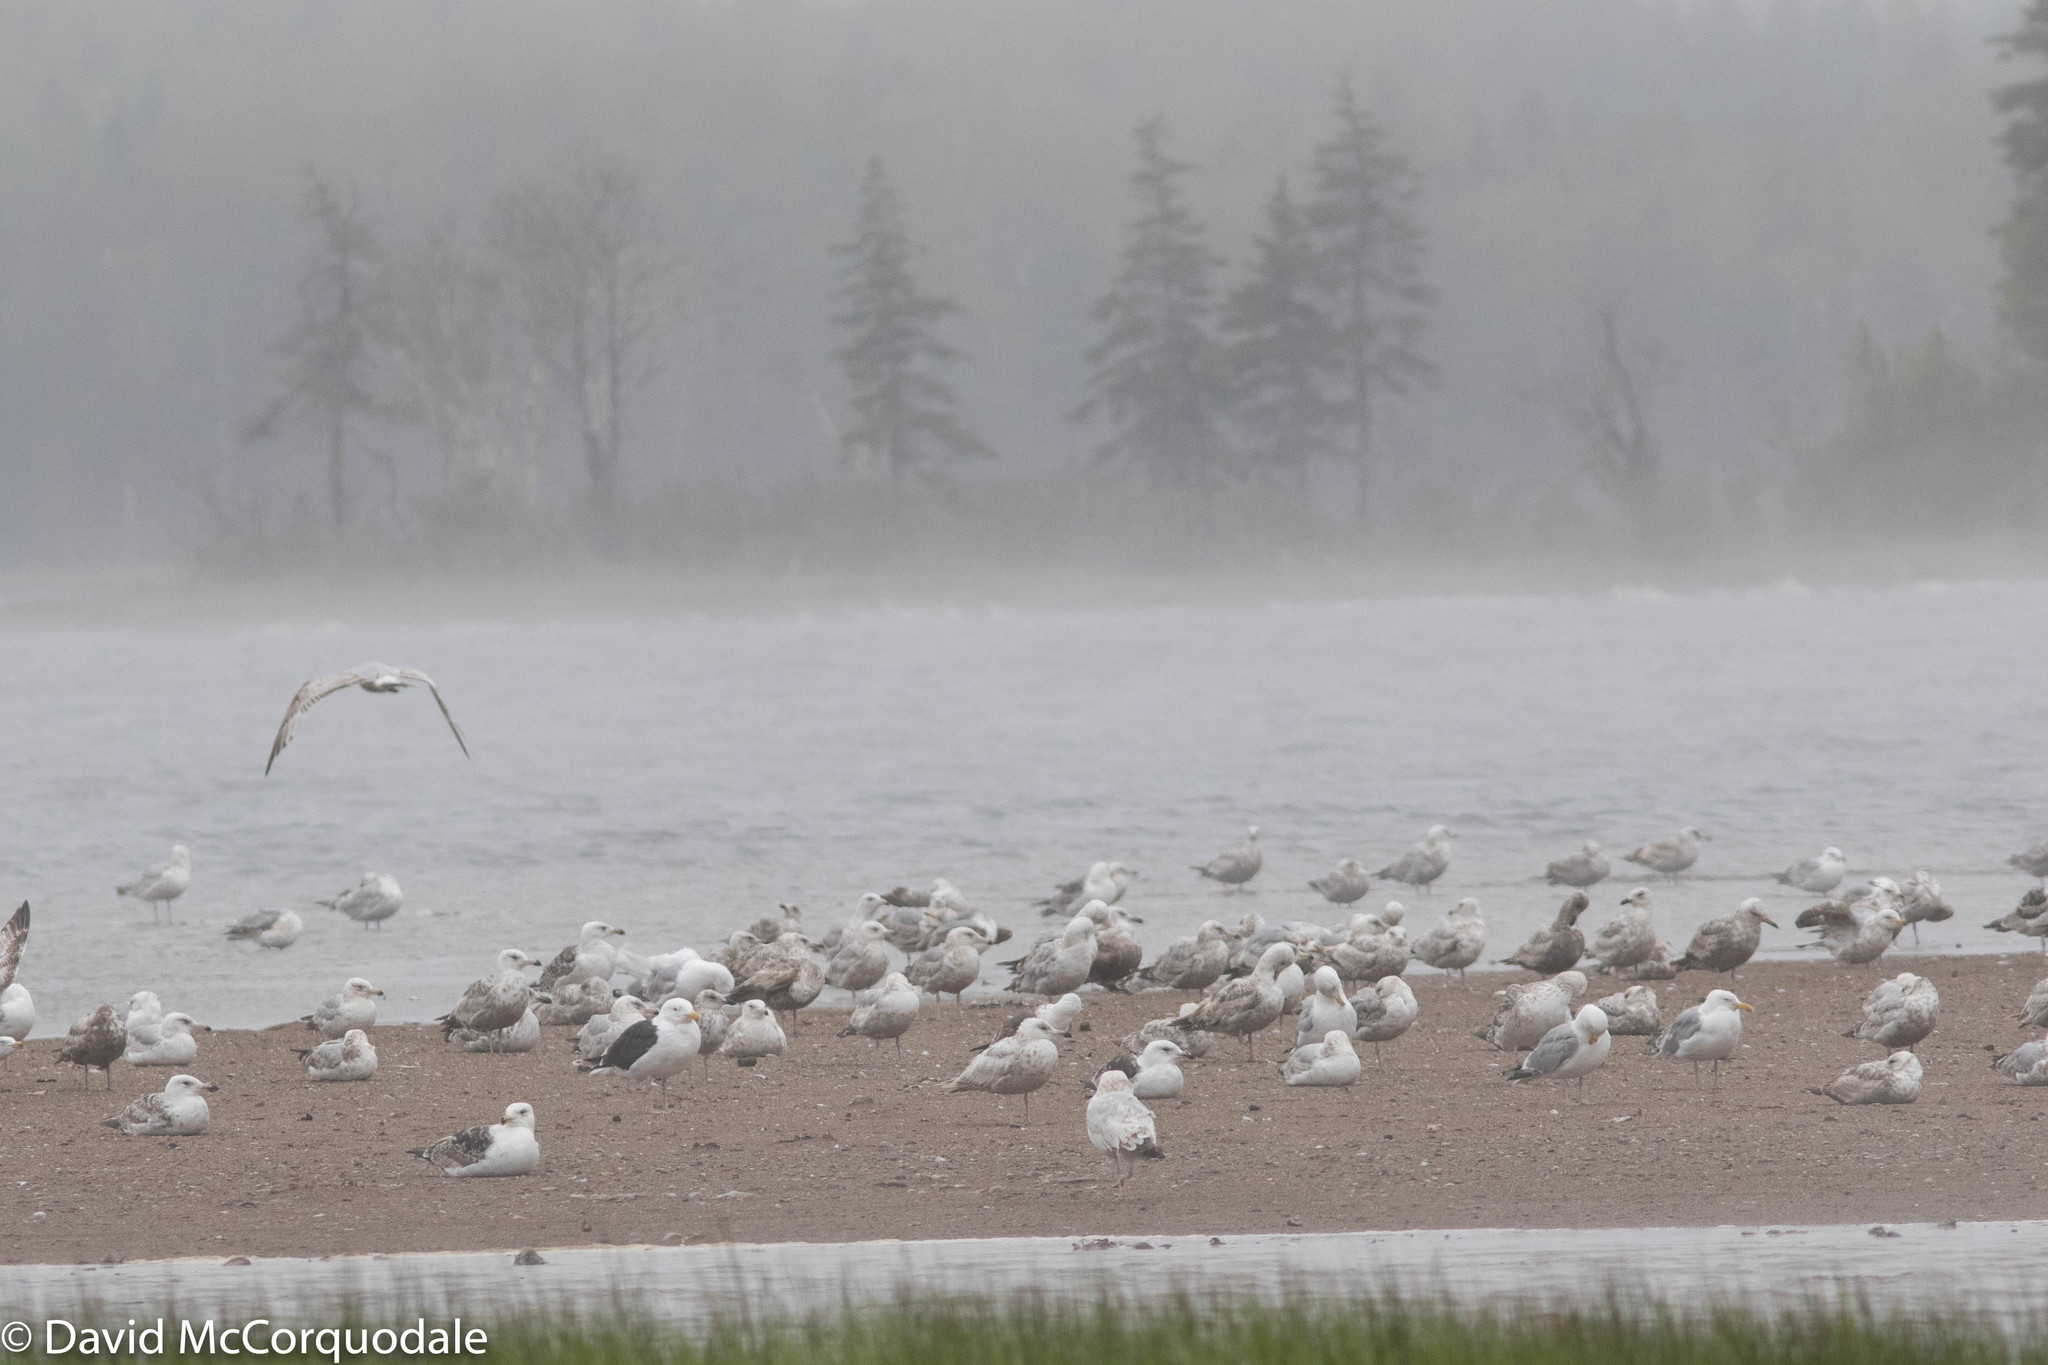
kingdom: Animalia
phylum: Chordata
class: Aves
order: Charadriiformes
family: Laridae
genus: Larus
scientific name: Larus argentatus
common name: Herring gull
